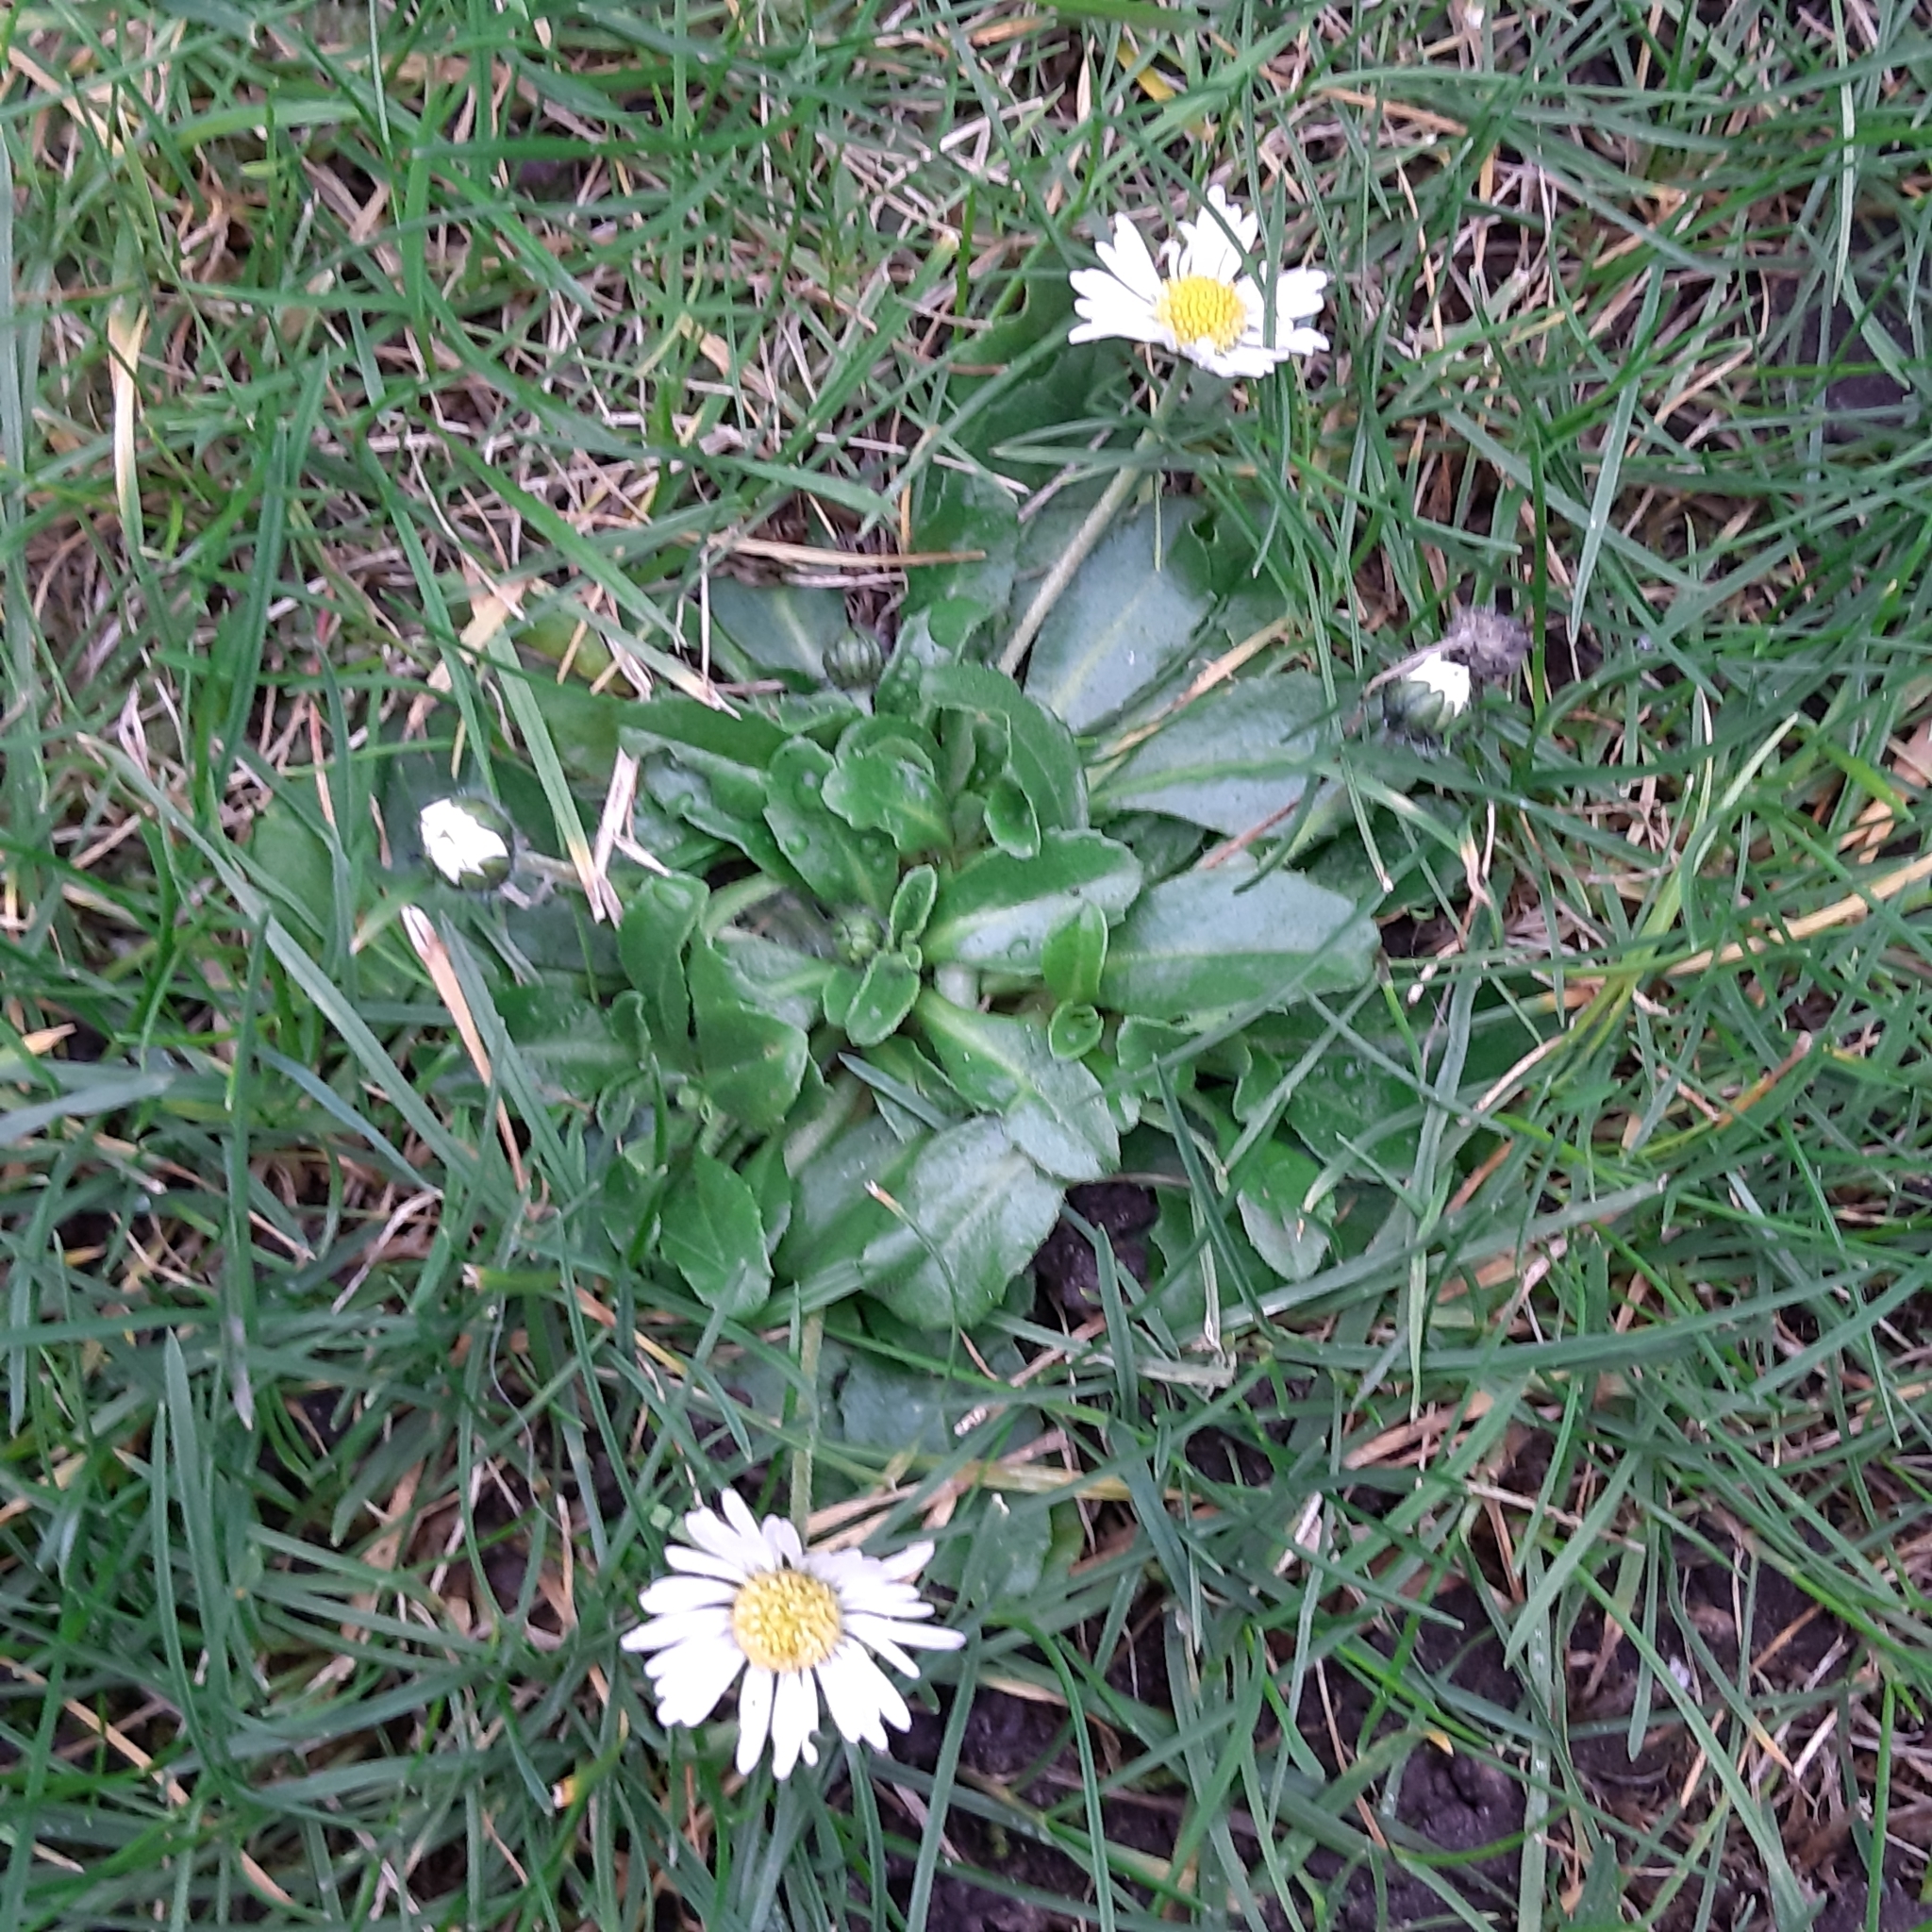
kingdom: Plantae
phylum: Tracheophyta
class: Magnoliopsida
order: Asterales
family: Asteraceae
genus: Bellis
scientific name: Bellis perennis
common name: Lawndaisy
